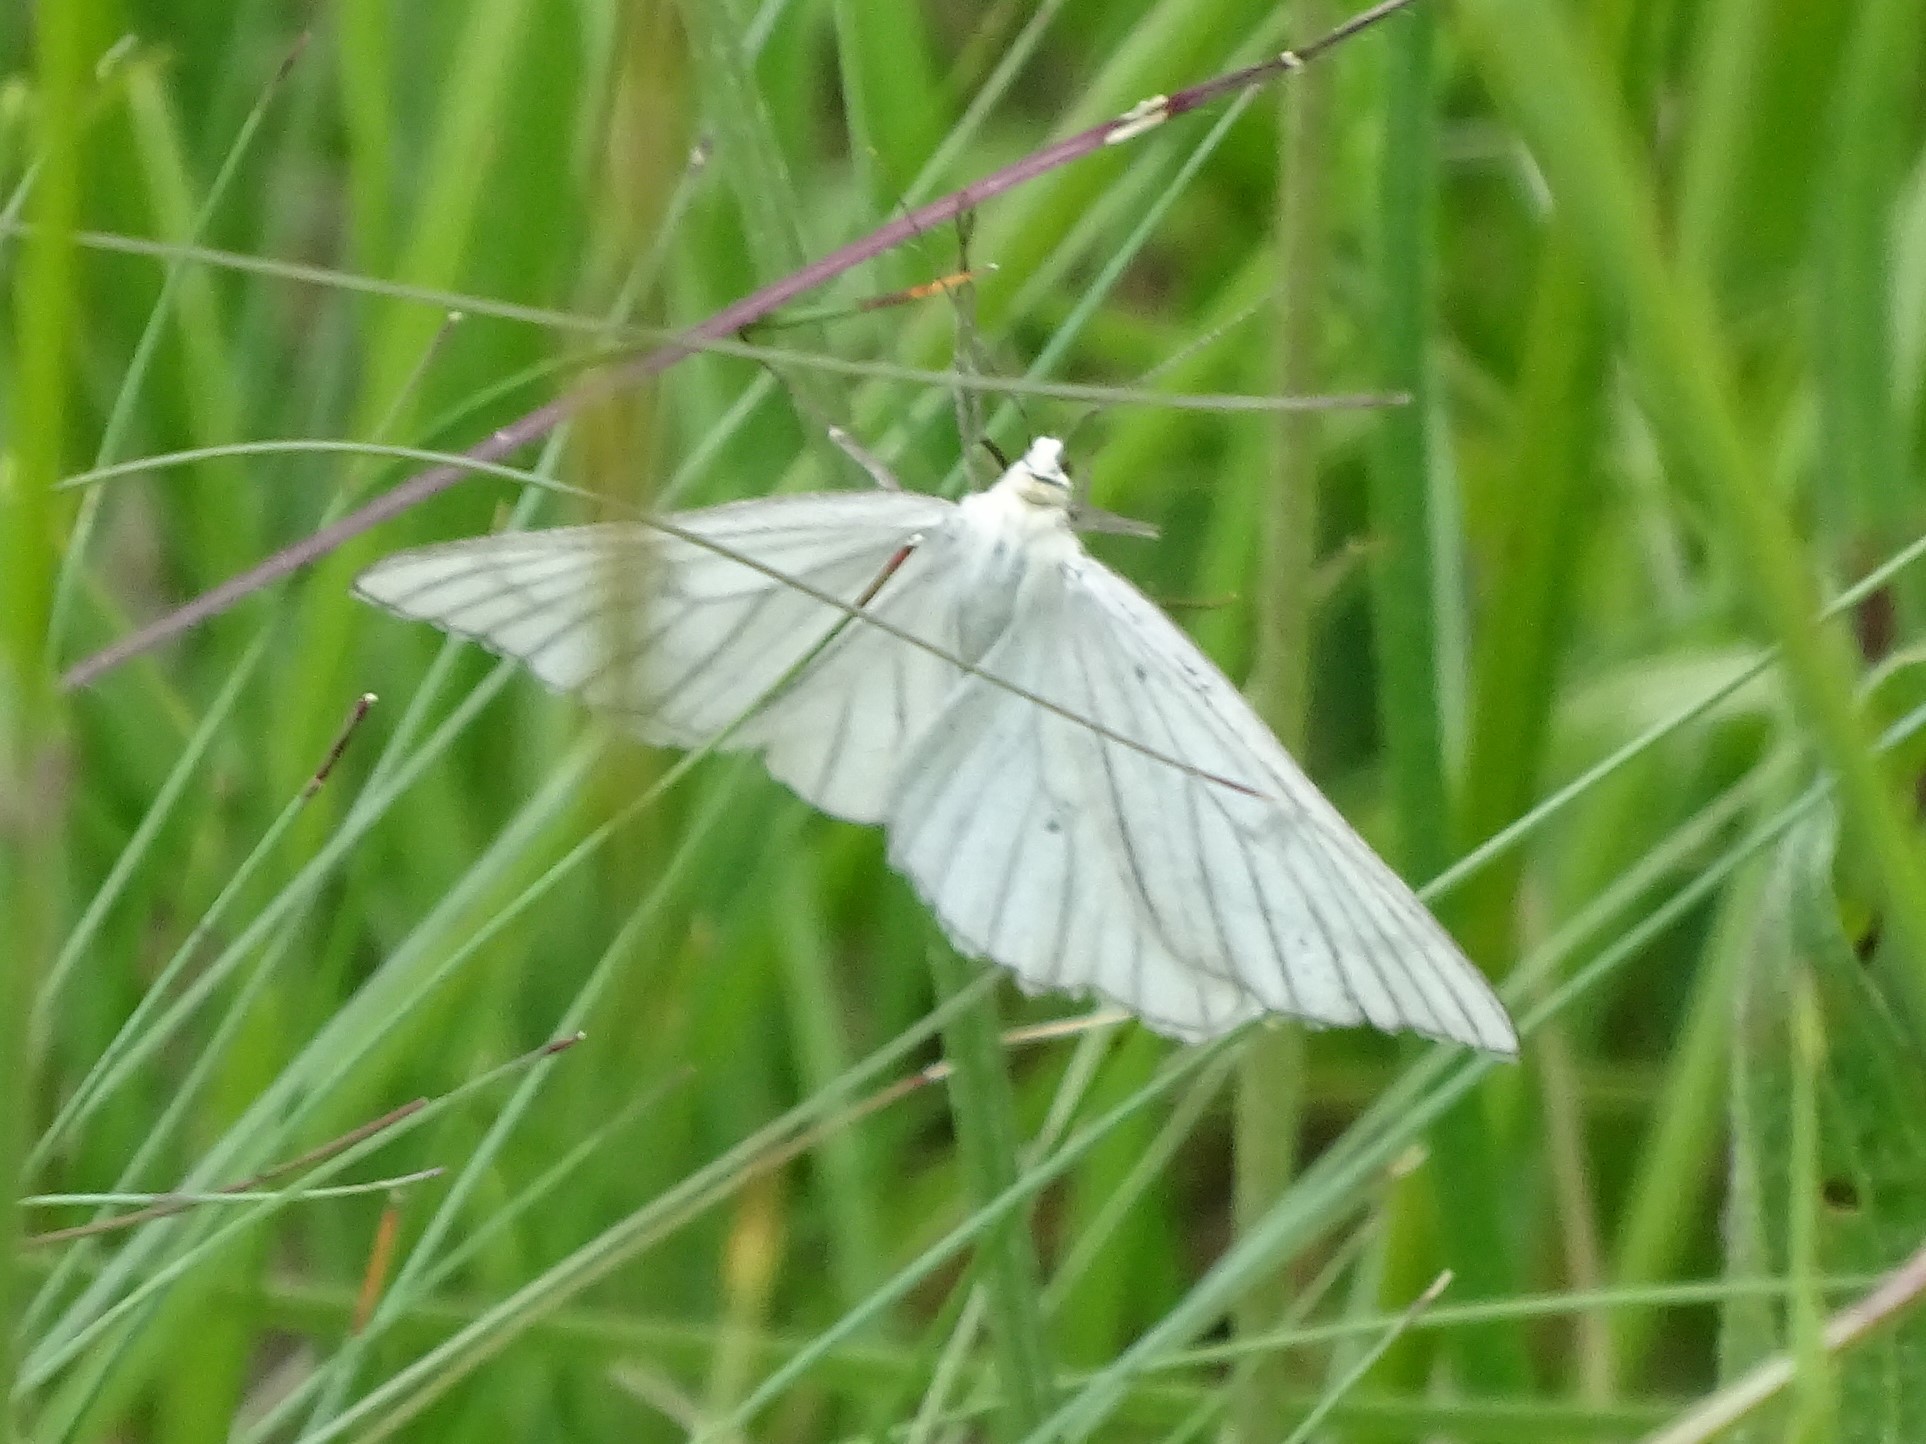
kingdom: Animalia
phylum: Arthropoda
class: Insecta
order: Lepidoptera
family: Geometridae
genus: Siona
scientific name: Siona lineata
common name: Black-veined moth
